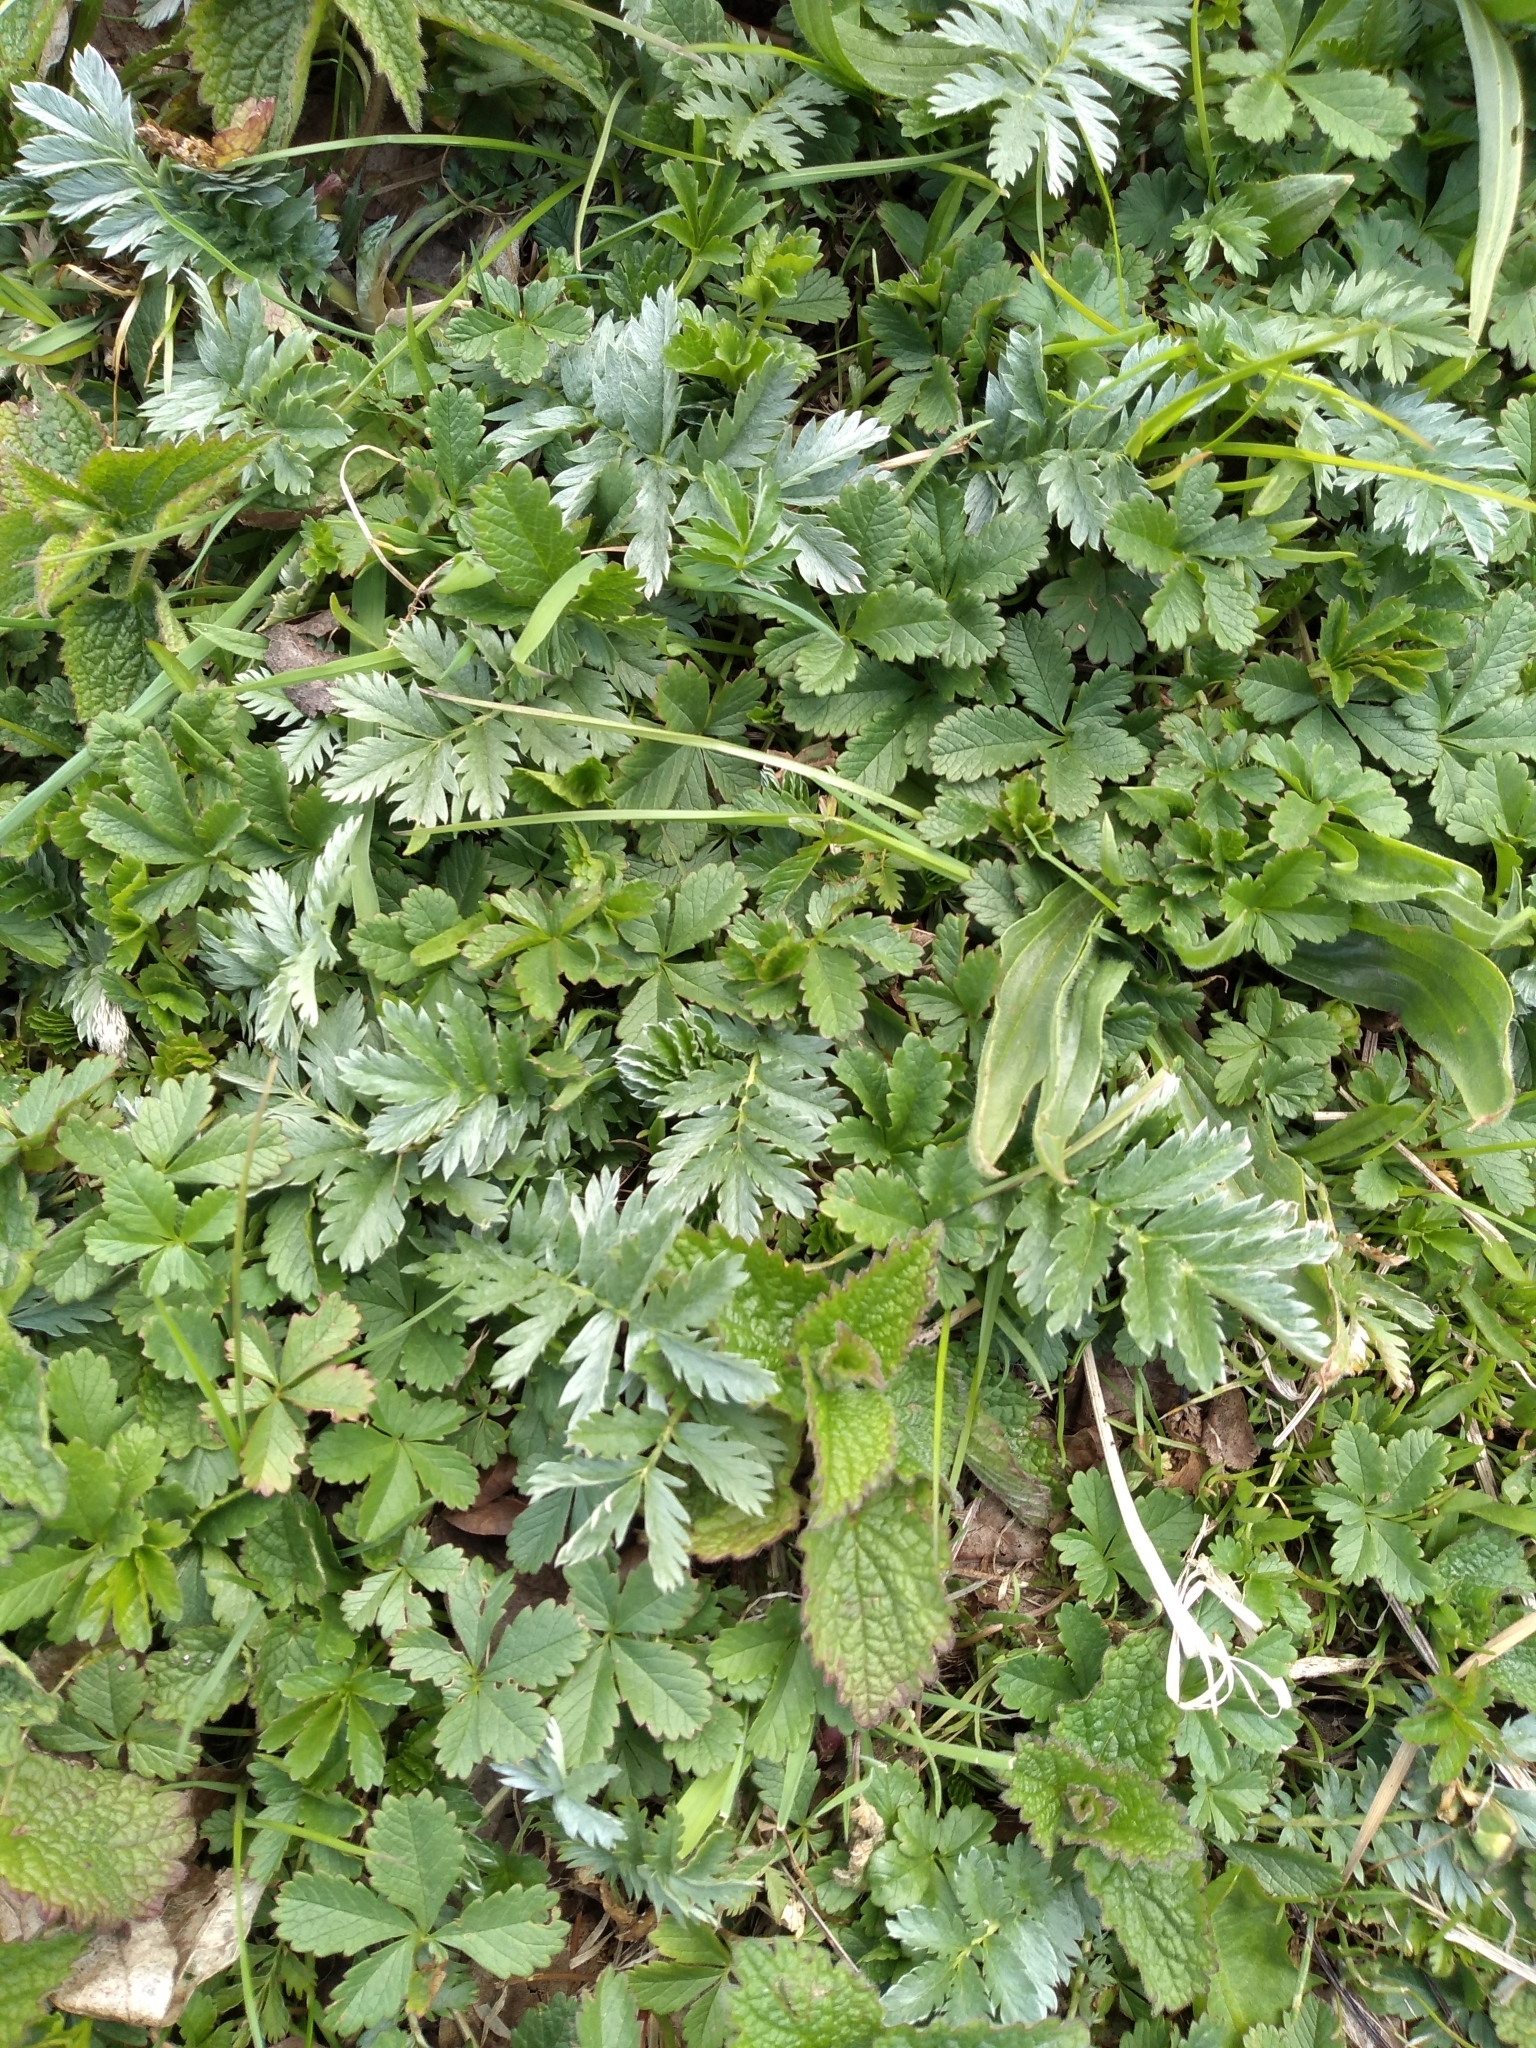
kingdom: Plantae
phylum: Tracheophyta
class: Magnoliopsida
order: Rosales
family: Rosaceae
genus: Argentina
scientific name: Argentina anserina
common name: Common silverweed
